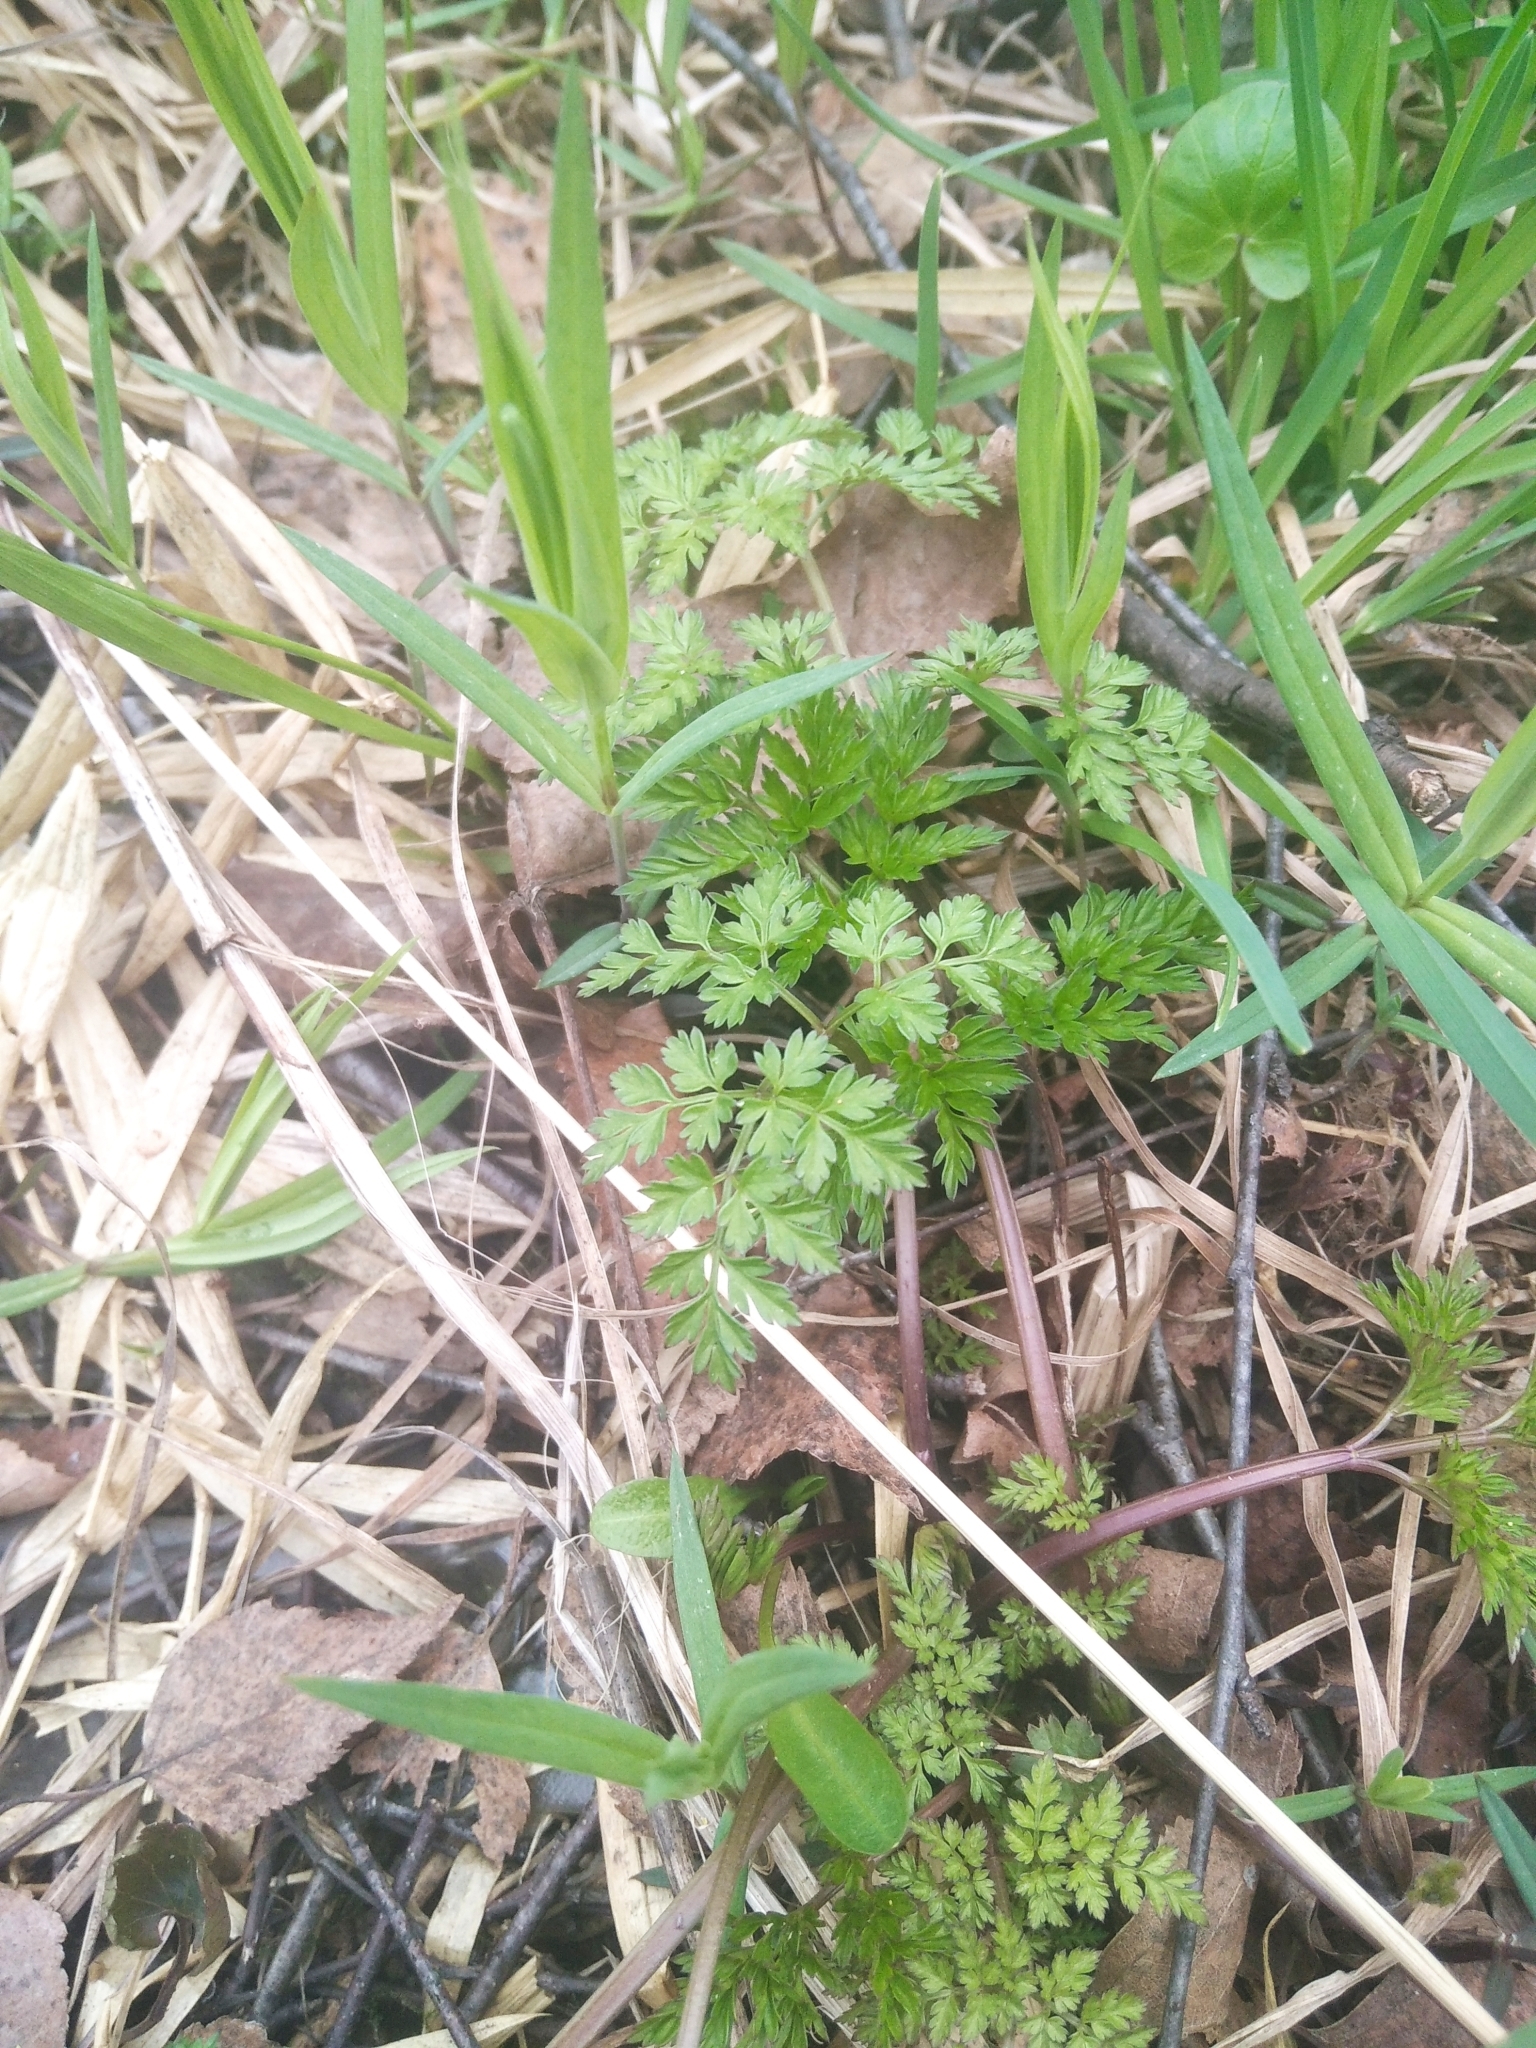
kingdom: Plantae
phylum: Tracheophyta
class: Magnoliopsida
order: Apiales
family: Apiaceae
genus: Anthriscus
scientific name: Anthriscus sylvestris
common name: Cow parsley
